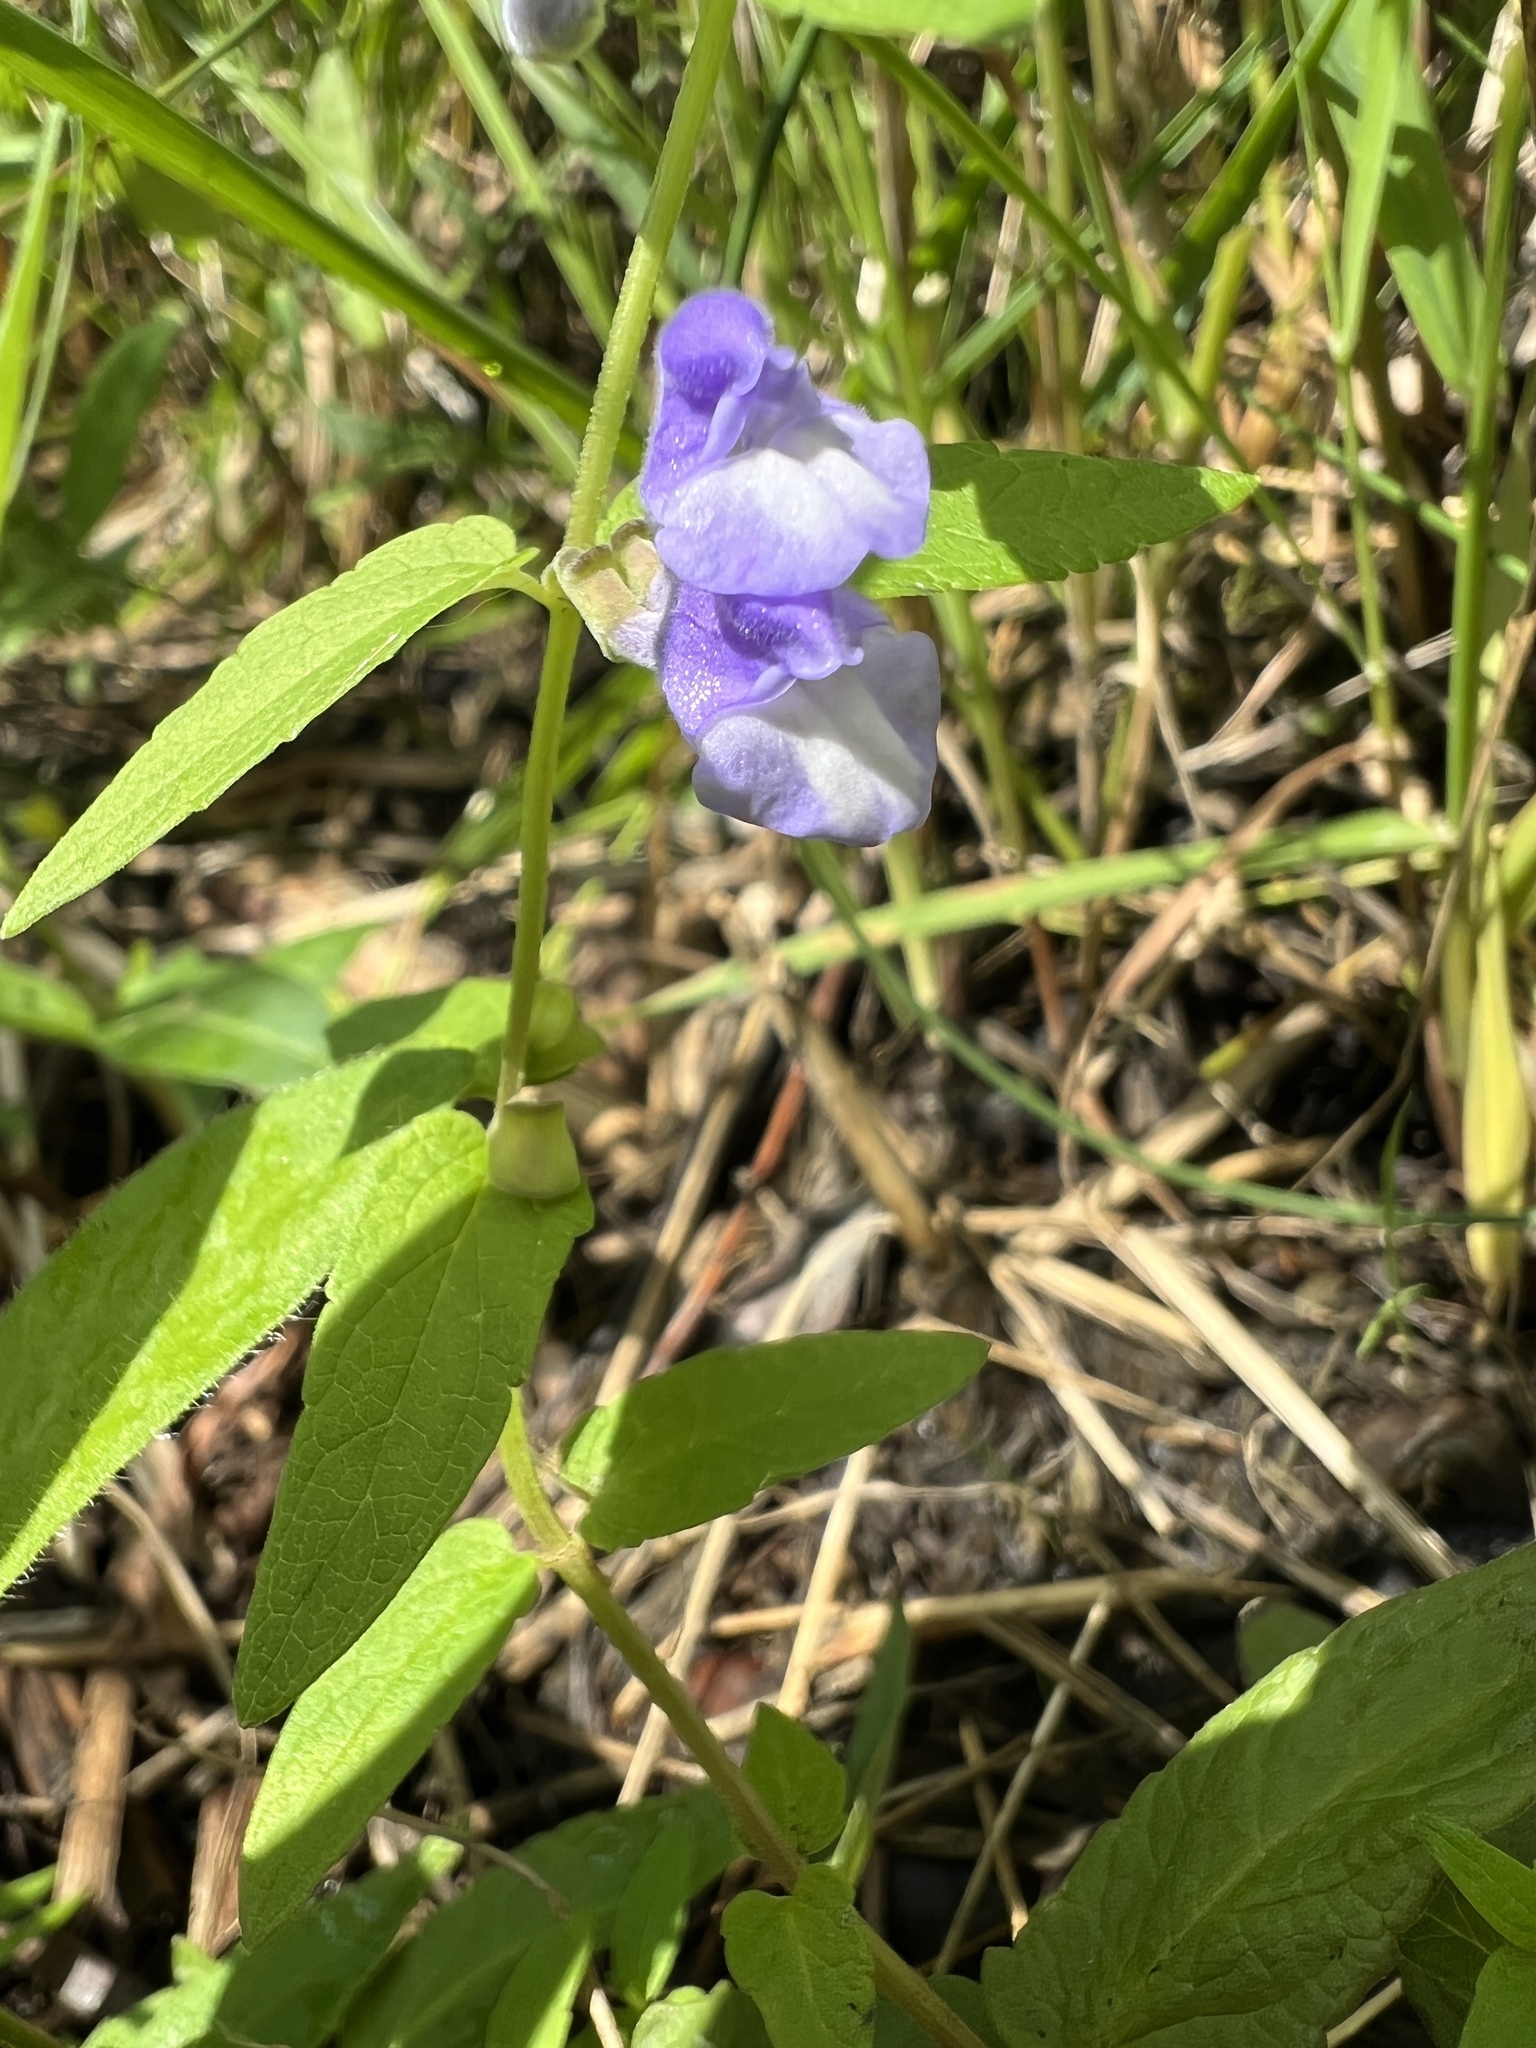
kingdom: Plantae
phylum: Tracheophyta
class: Magnoliopsida
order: Lamiales
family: Lamiaceae
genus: Scutellaria
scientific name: Scutellaria galericulata
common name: Skullcap
